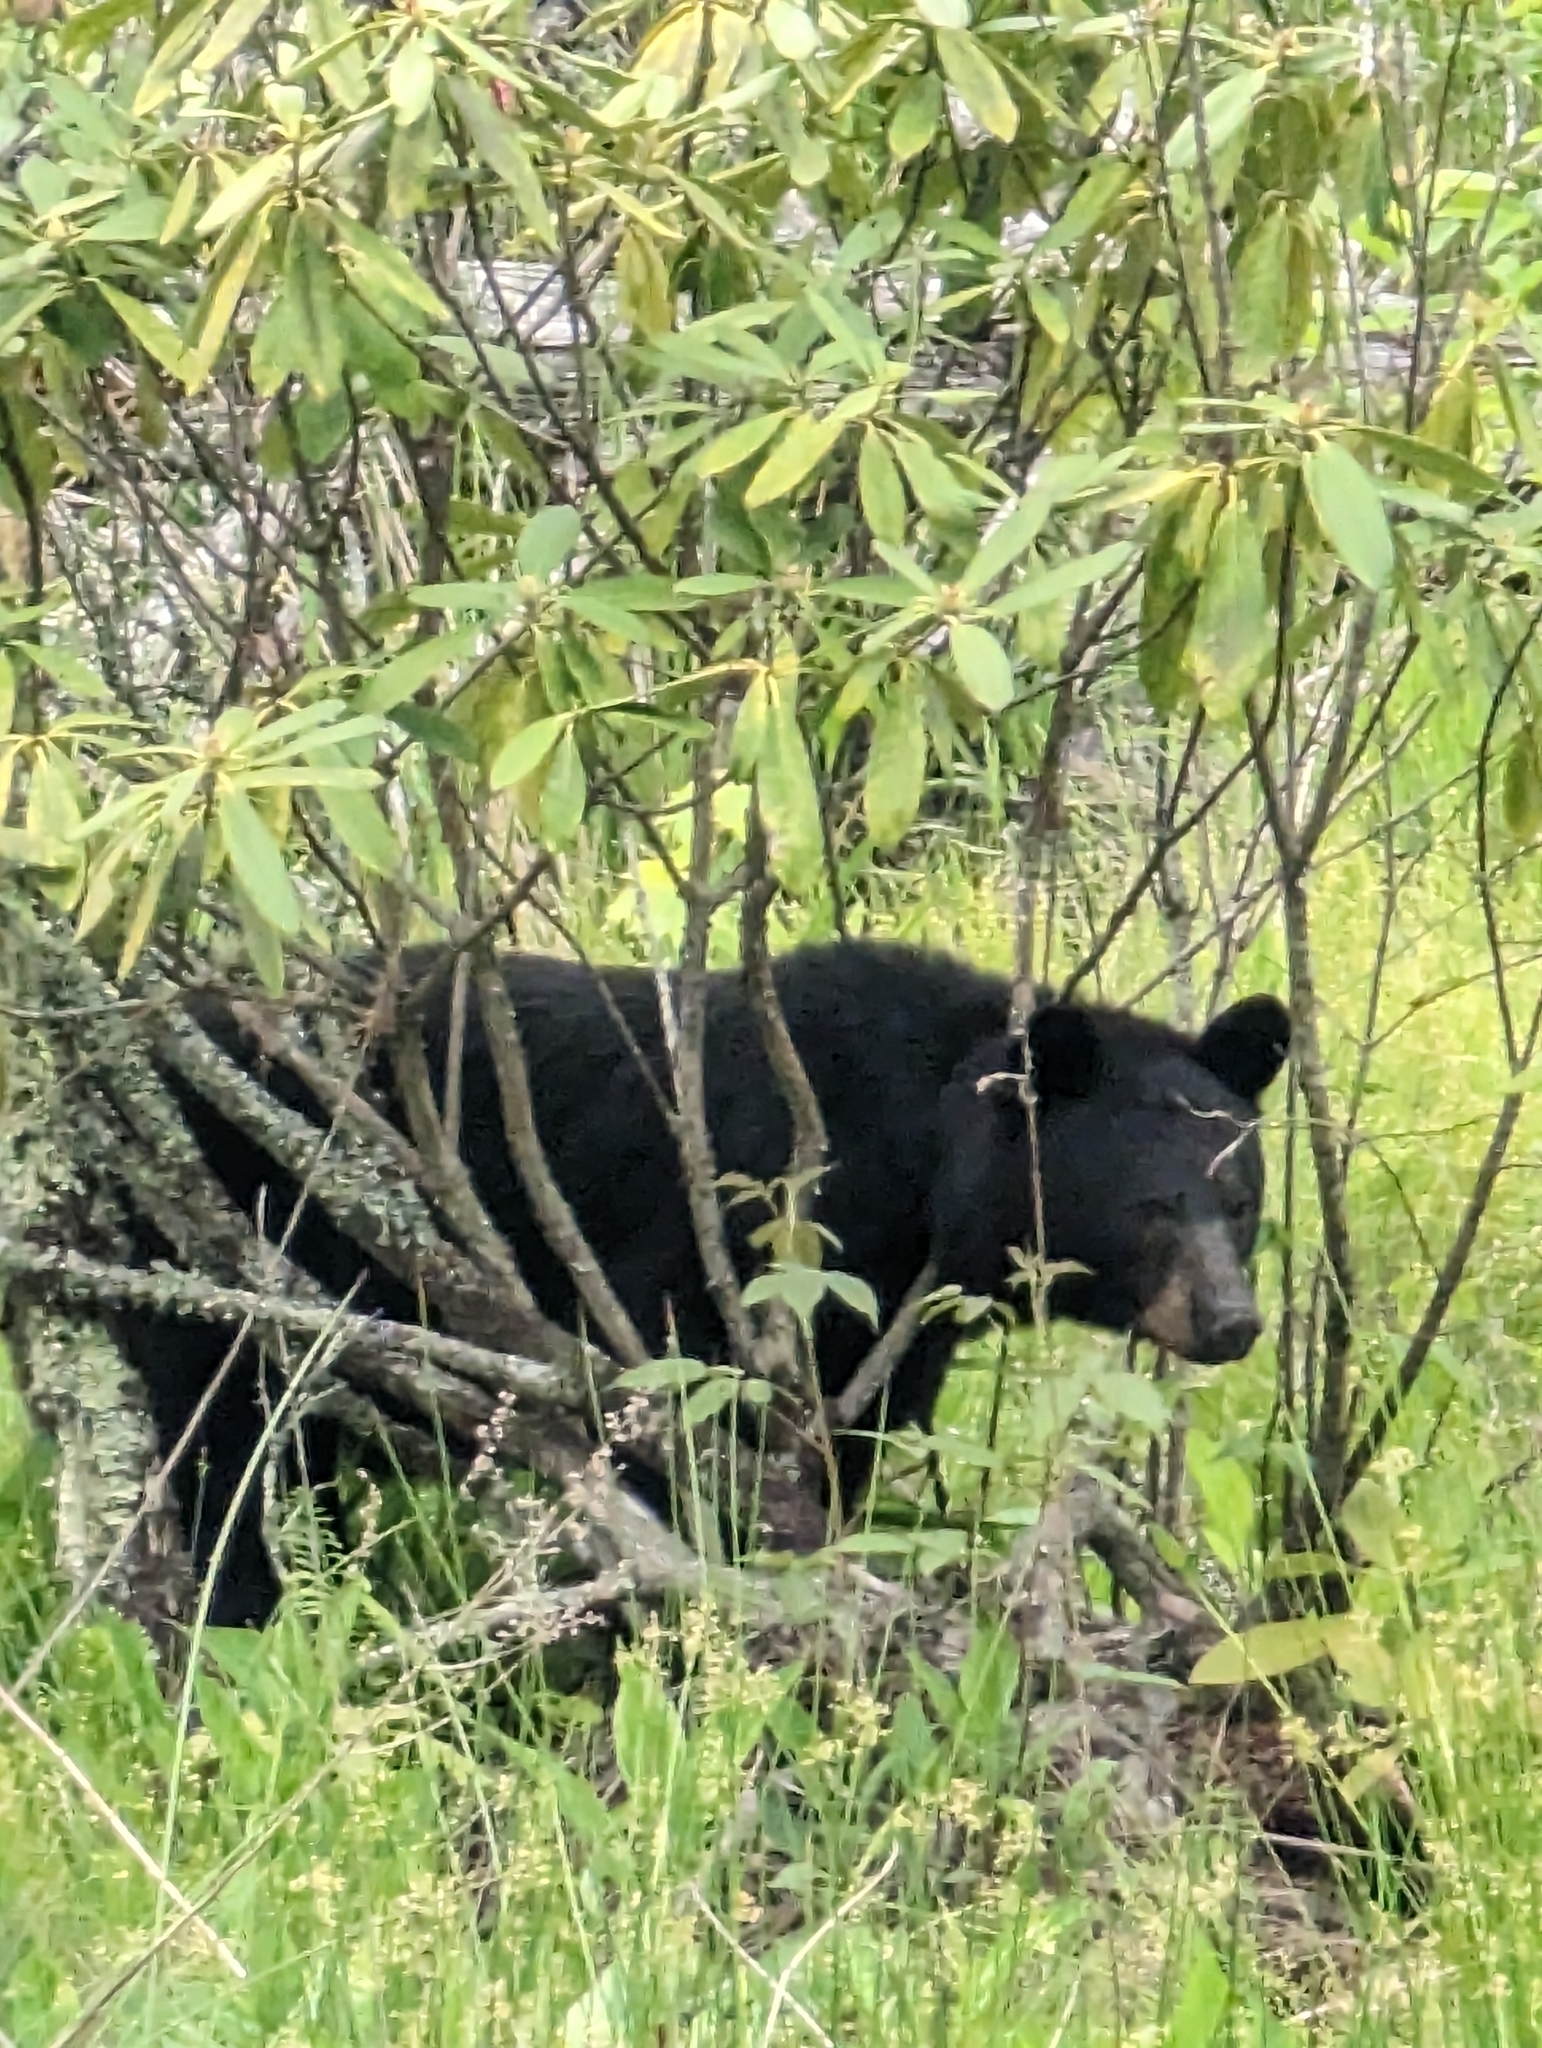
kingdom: Animalia
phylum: Chordata
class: Mammalia
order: Carnivora
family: Ursidae
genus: Ursus
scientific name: Ursus americanus
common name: American black bear
